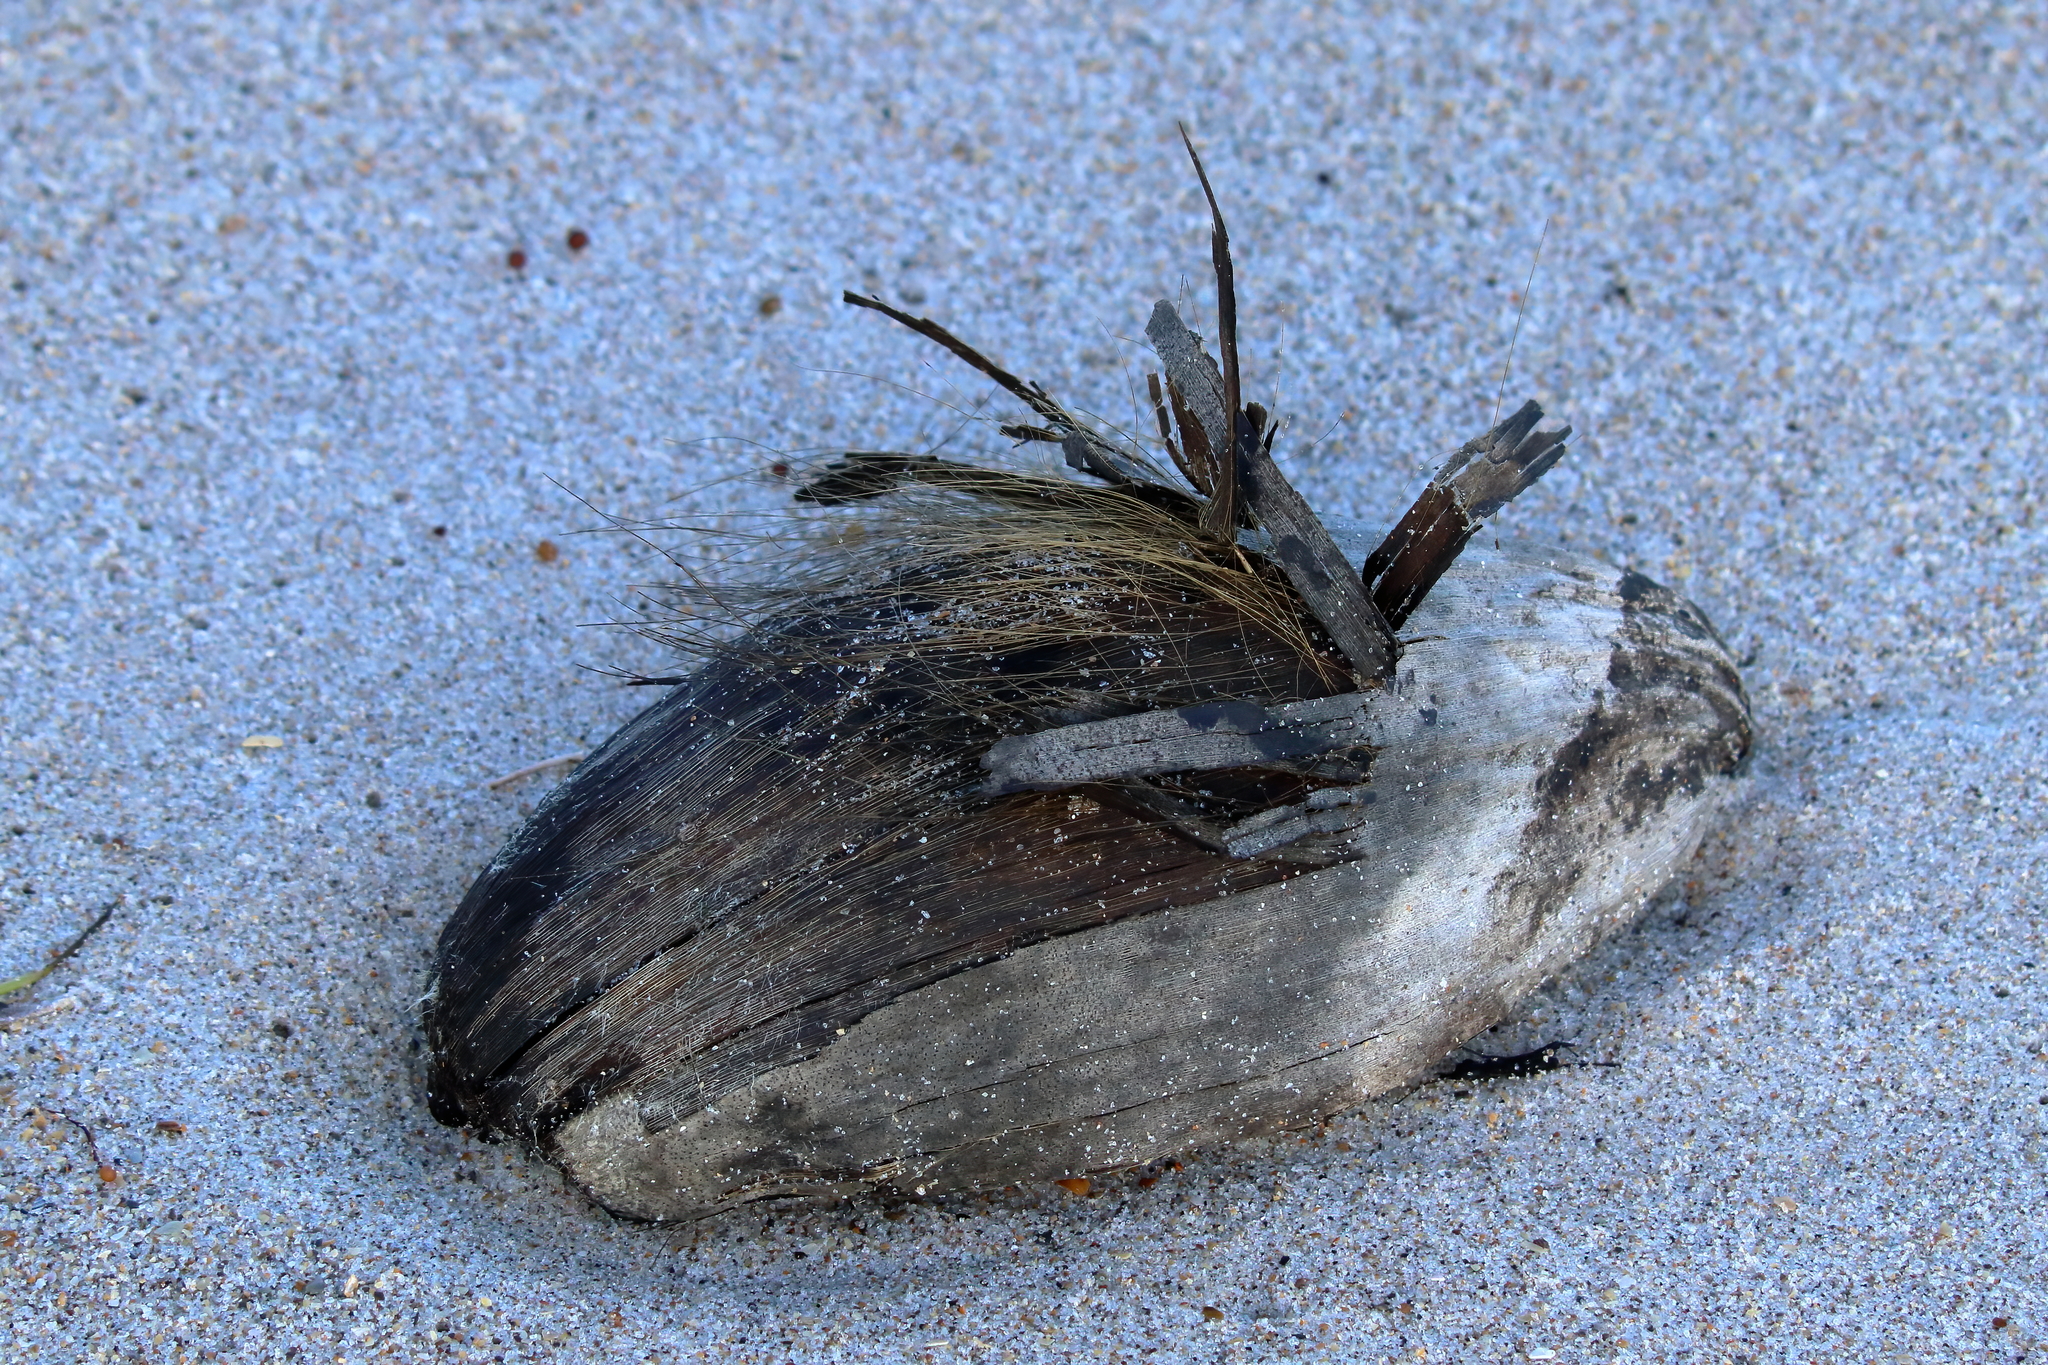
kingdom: Plantae
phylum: Tracheophyta
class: Liliopsida
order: Arecales
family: Arecaceae
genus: Cocos
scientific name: Cocos nucifera
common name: Coconut palm
